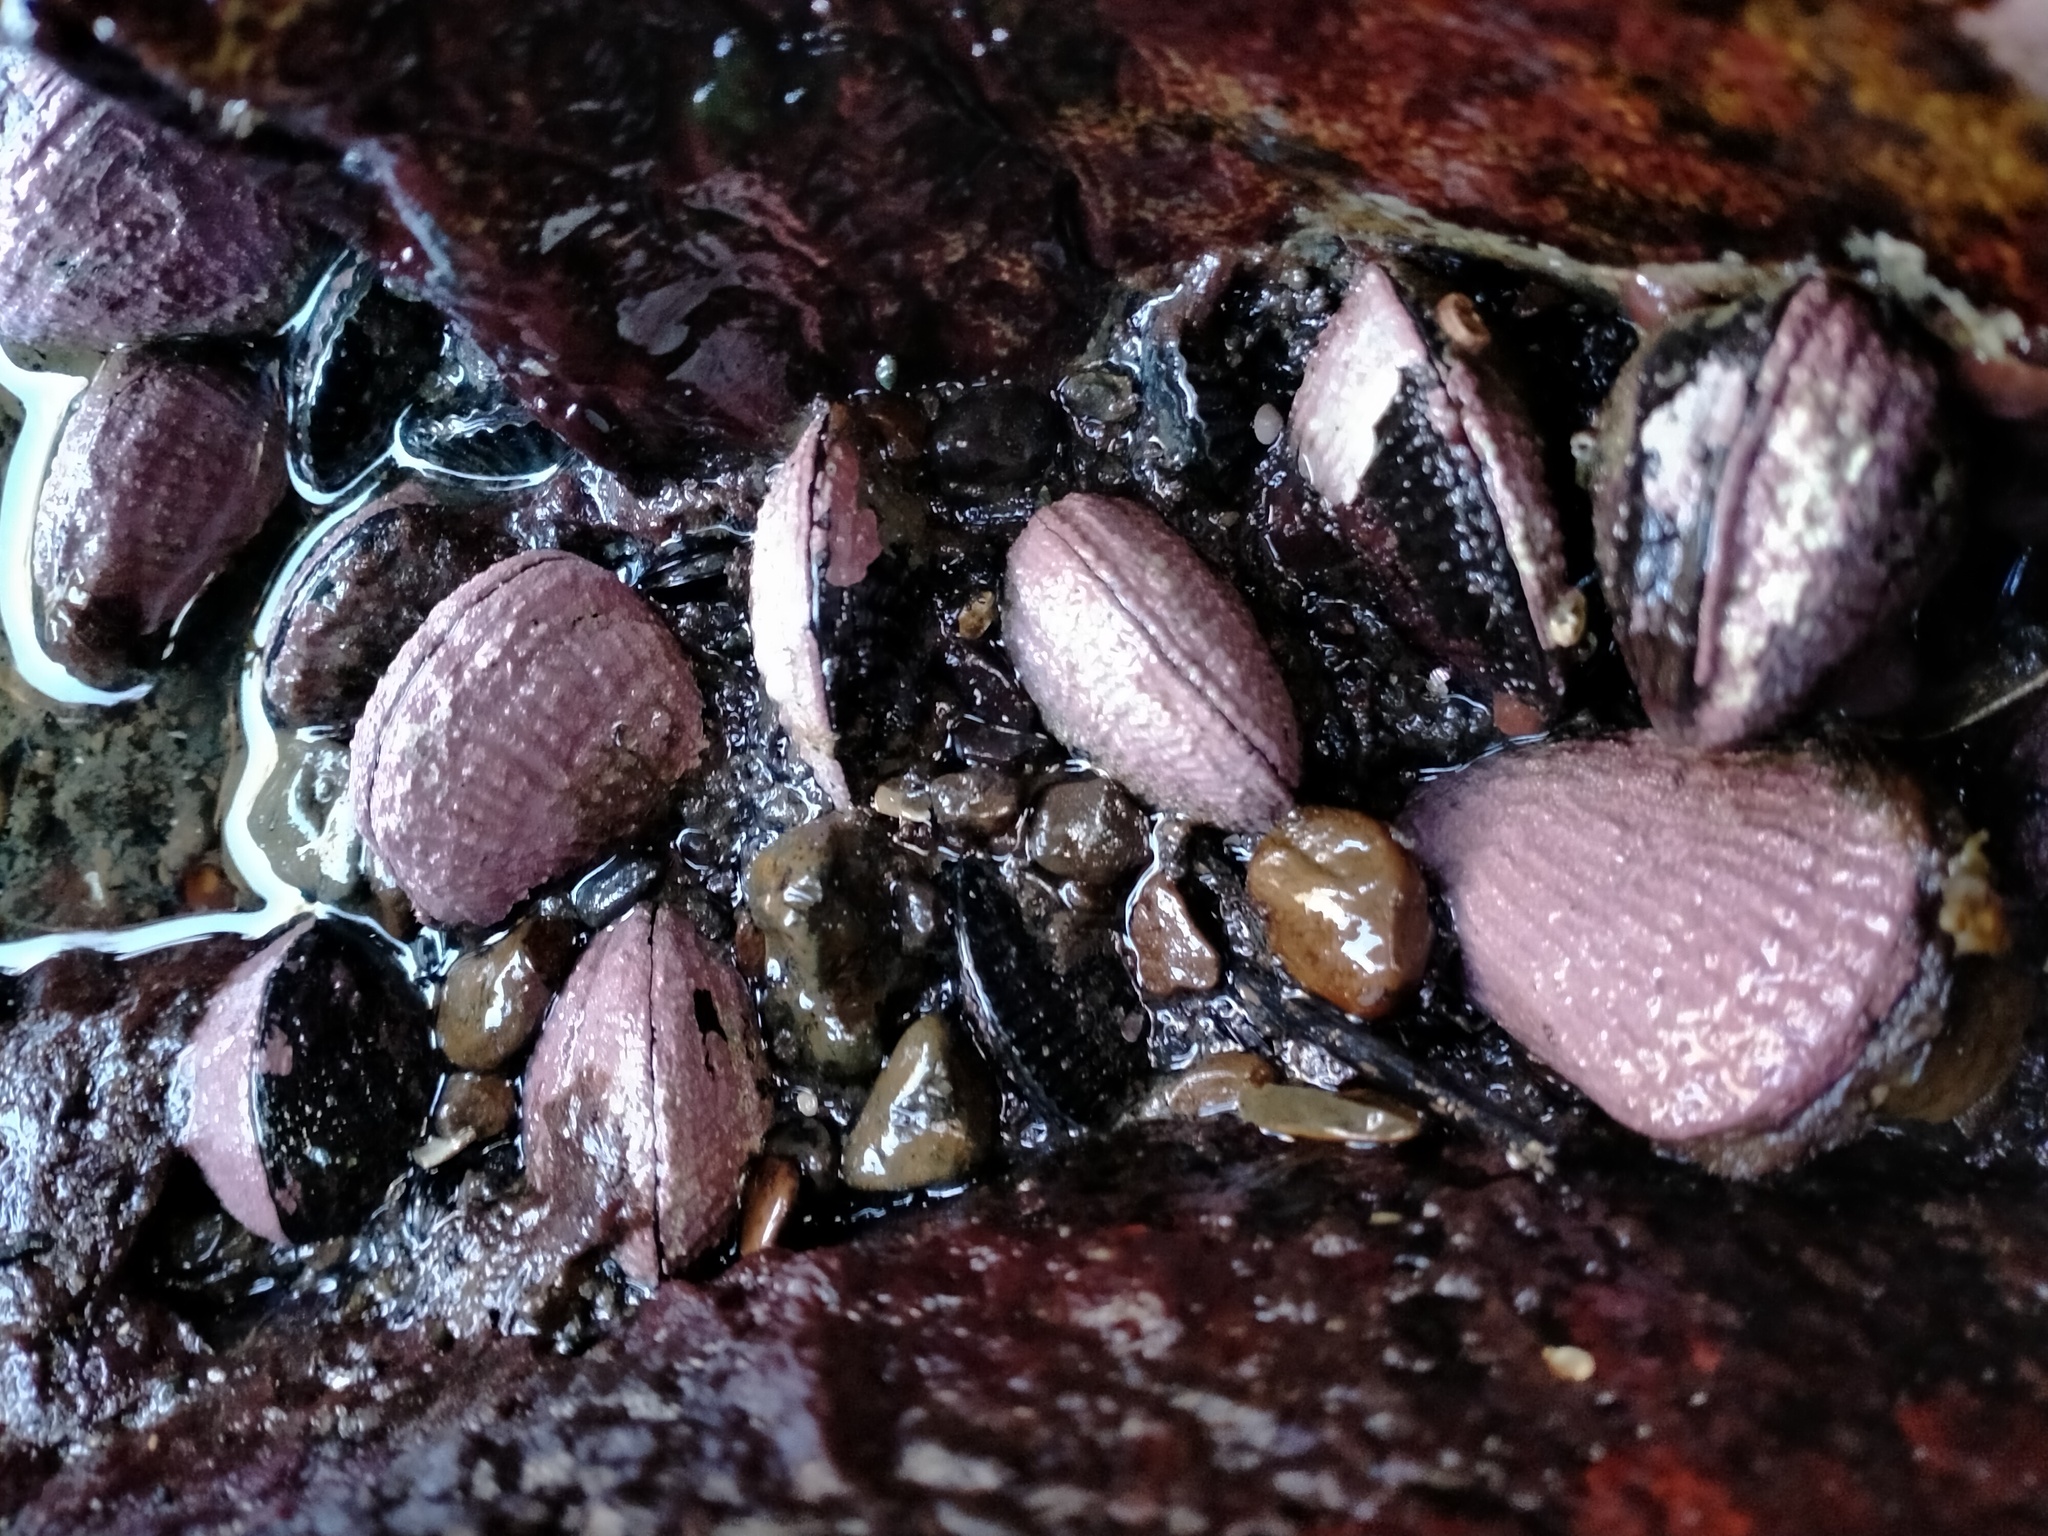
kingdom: Animalia
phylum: Mollusca
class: Bivalvia
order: Mytilida
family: Mytilidae
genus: Aulacomya
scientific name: Aulacomya maoriana
